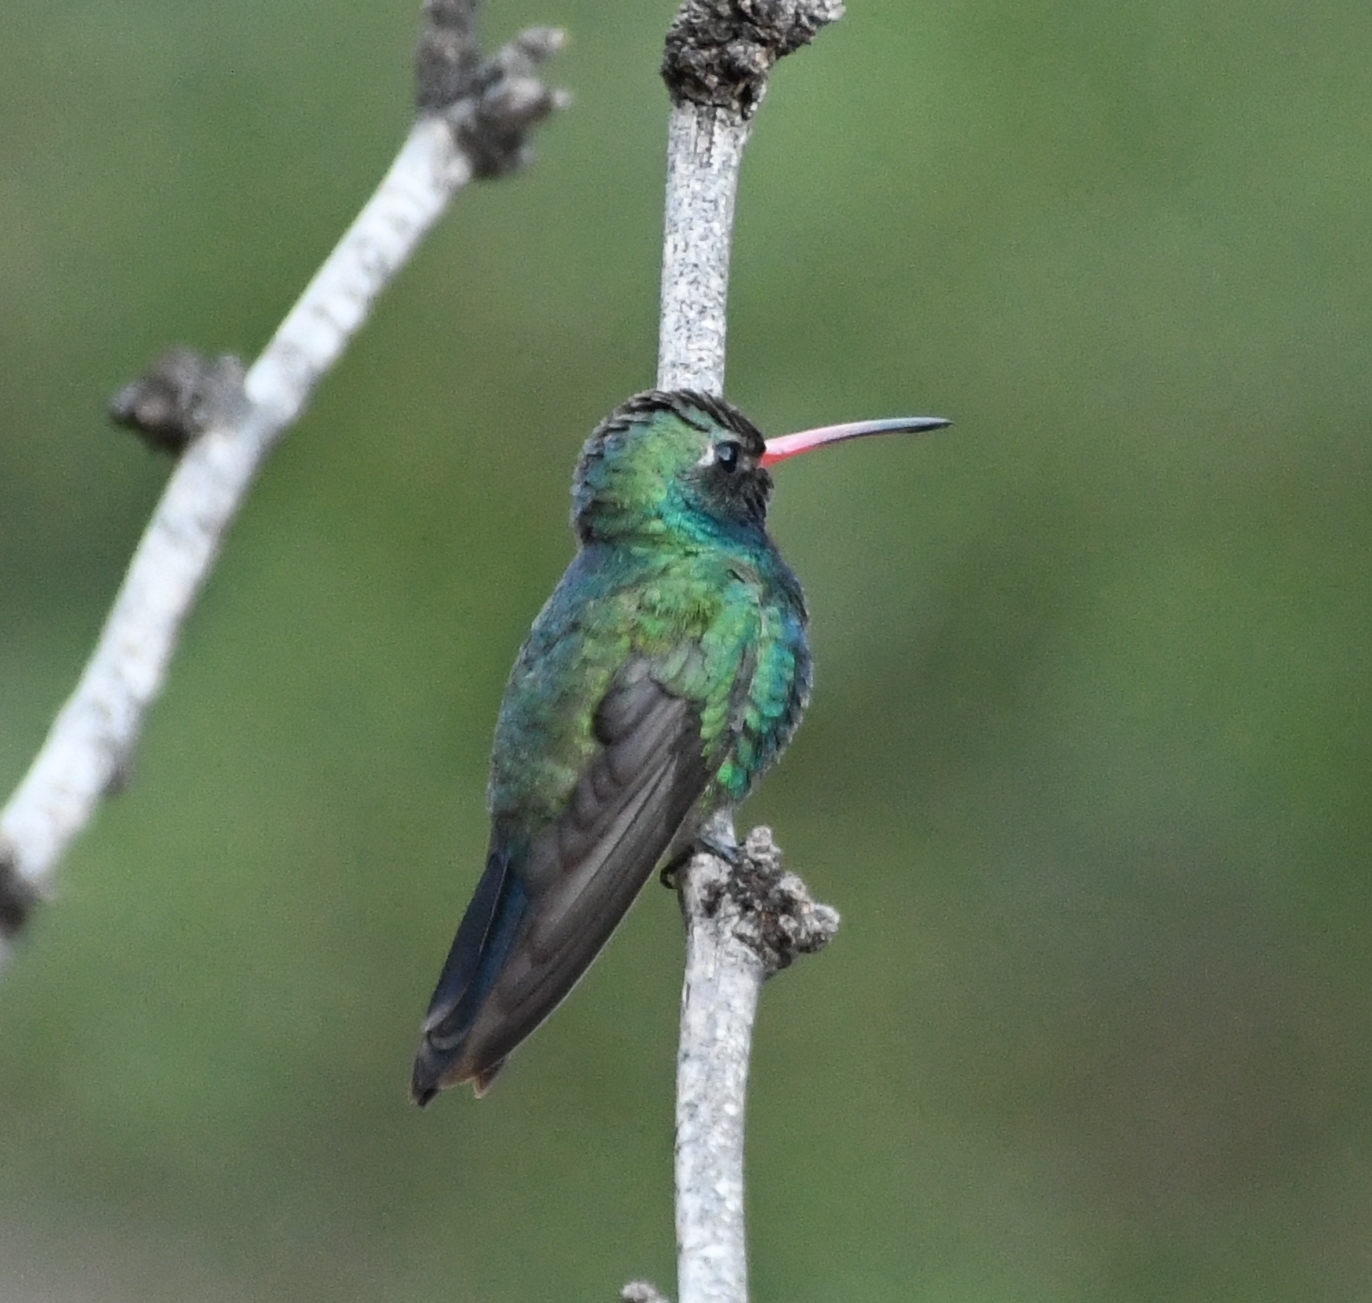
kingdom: Animalia
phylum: Chordata
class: Aves
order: Apodiformes
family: Trochilidae
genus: Cynanthus
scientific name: Cynanthus latirostris
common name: Broad-billed hummingbird
